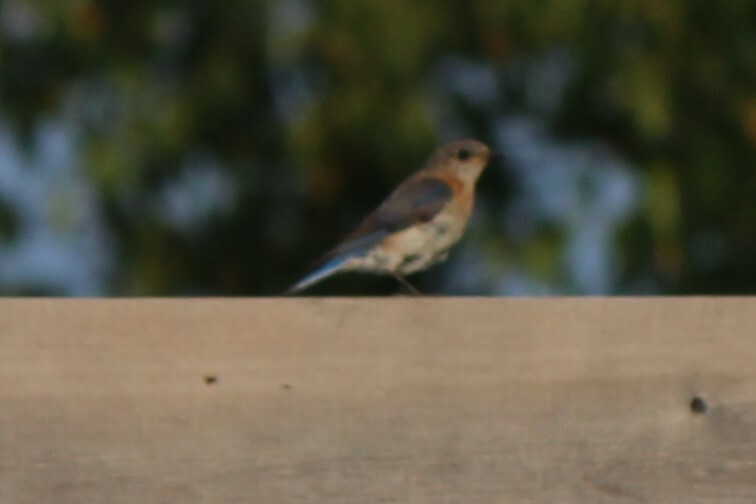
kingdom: Animalia
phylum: Chordata
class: Aves
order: Passeriformes
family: Turdidae
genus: Sialia
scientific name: Sialia sialis
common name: Eastern bluebird
